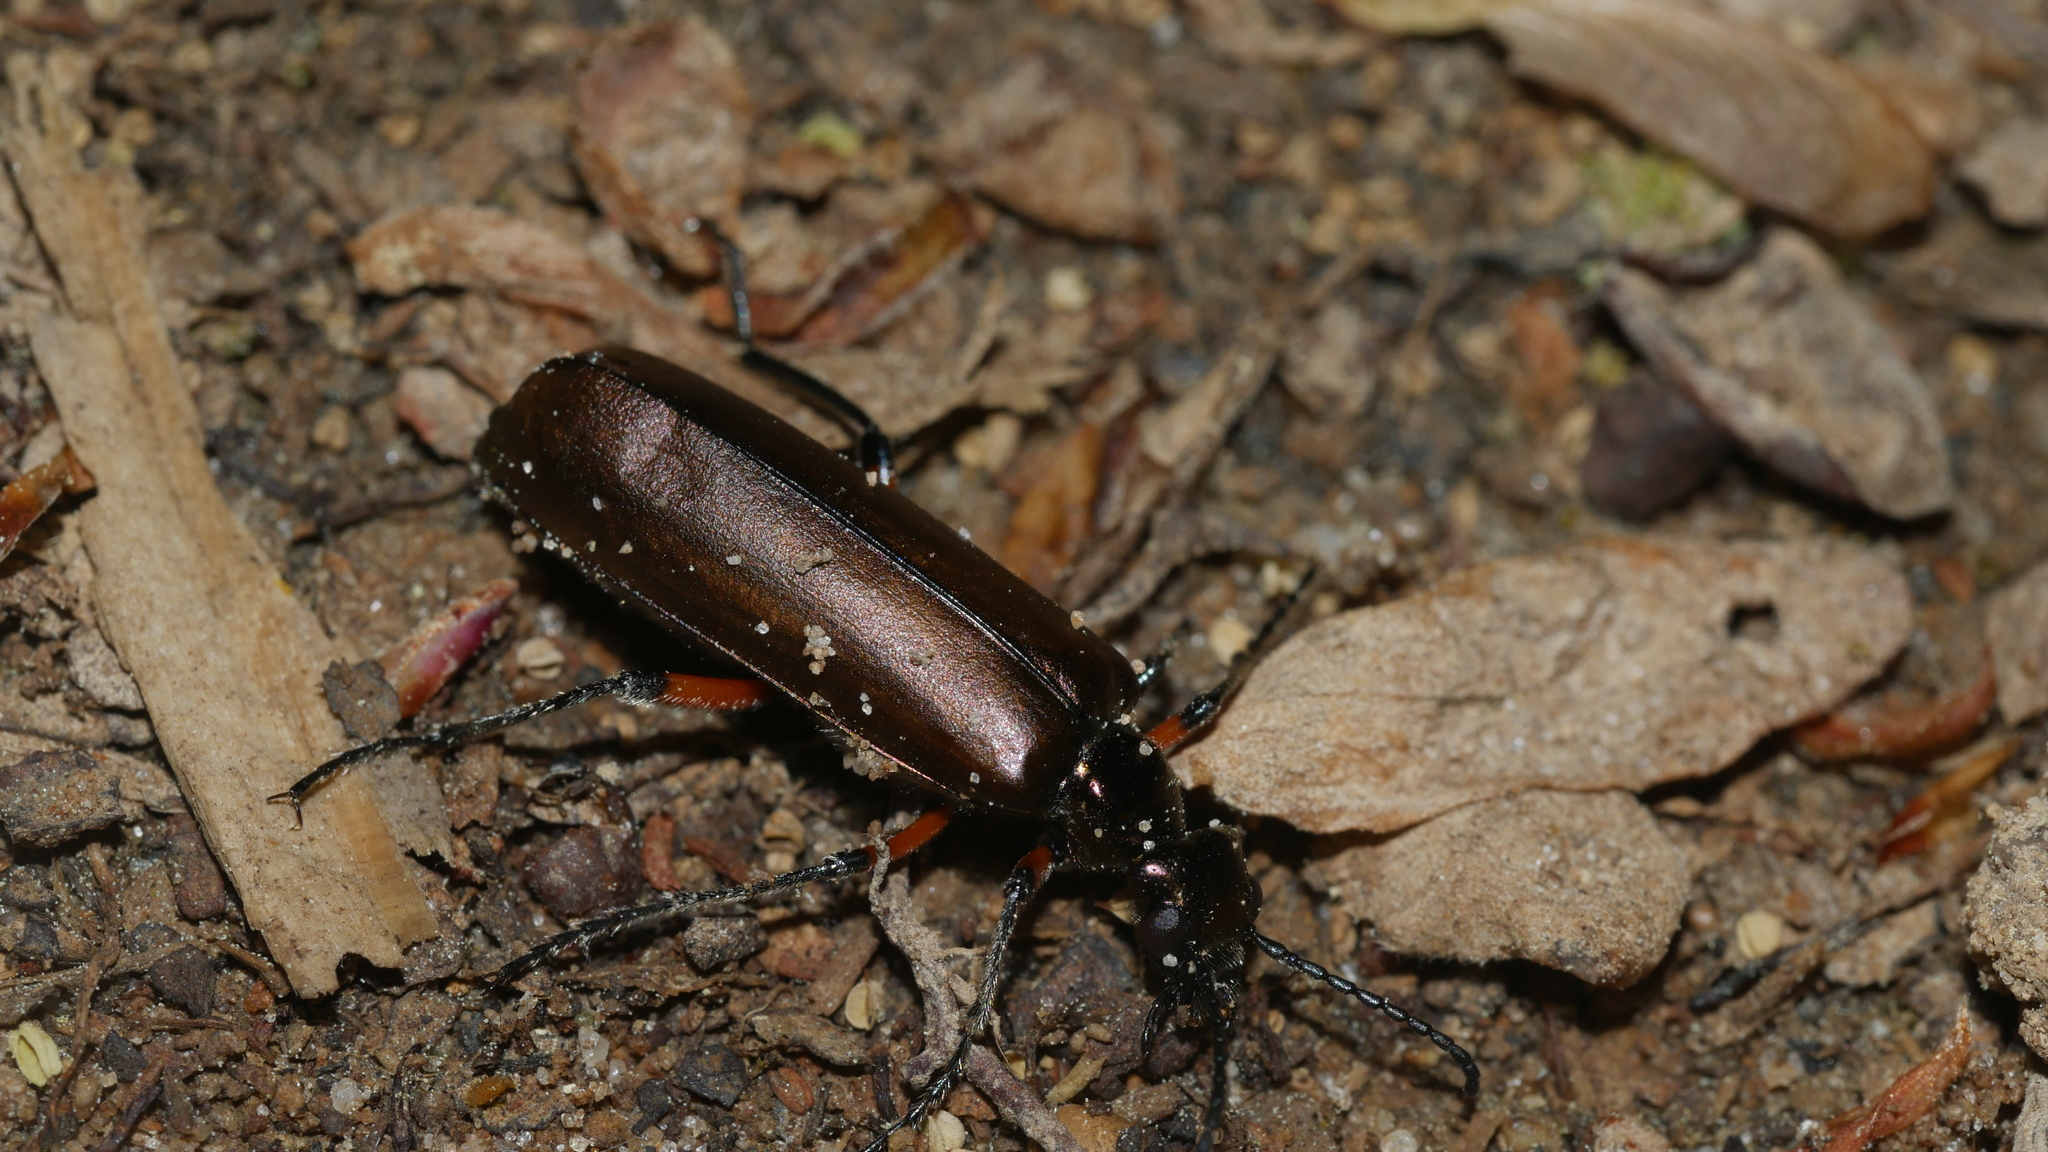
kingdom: Animalia
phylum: Arthropoda
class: Insecta
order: Coleoptera
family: Meloidae
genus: Lytta
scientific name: Lytta polita
